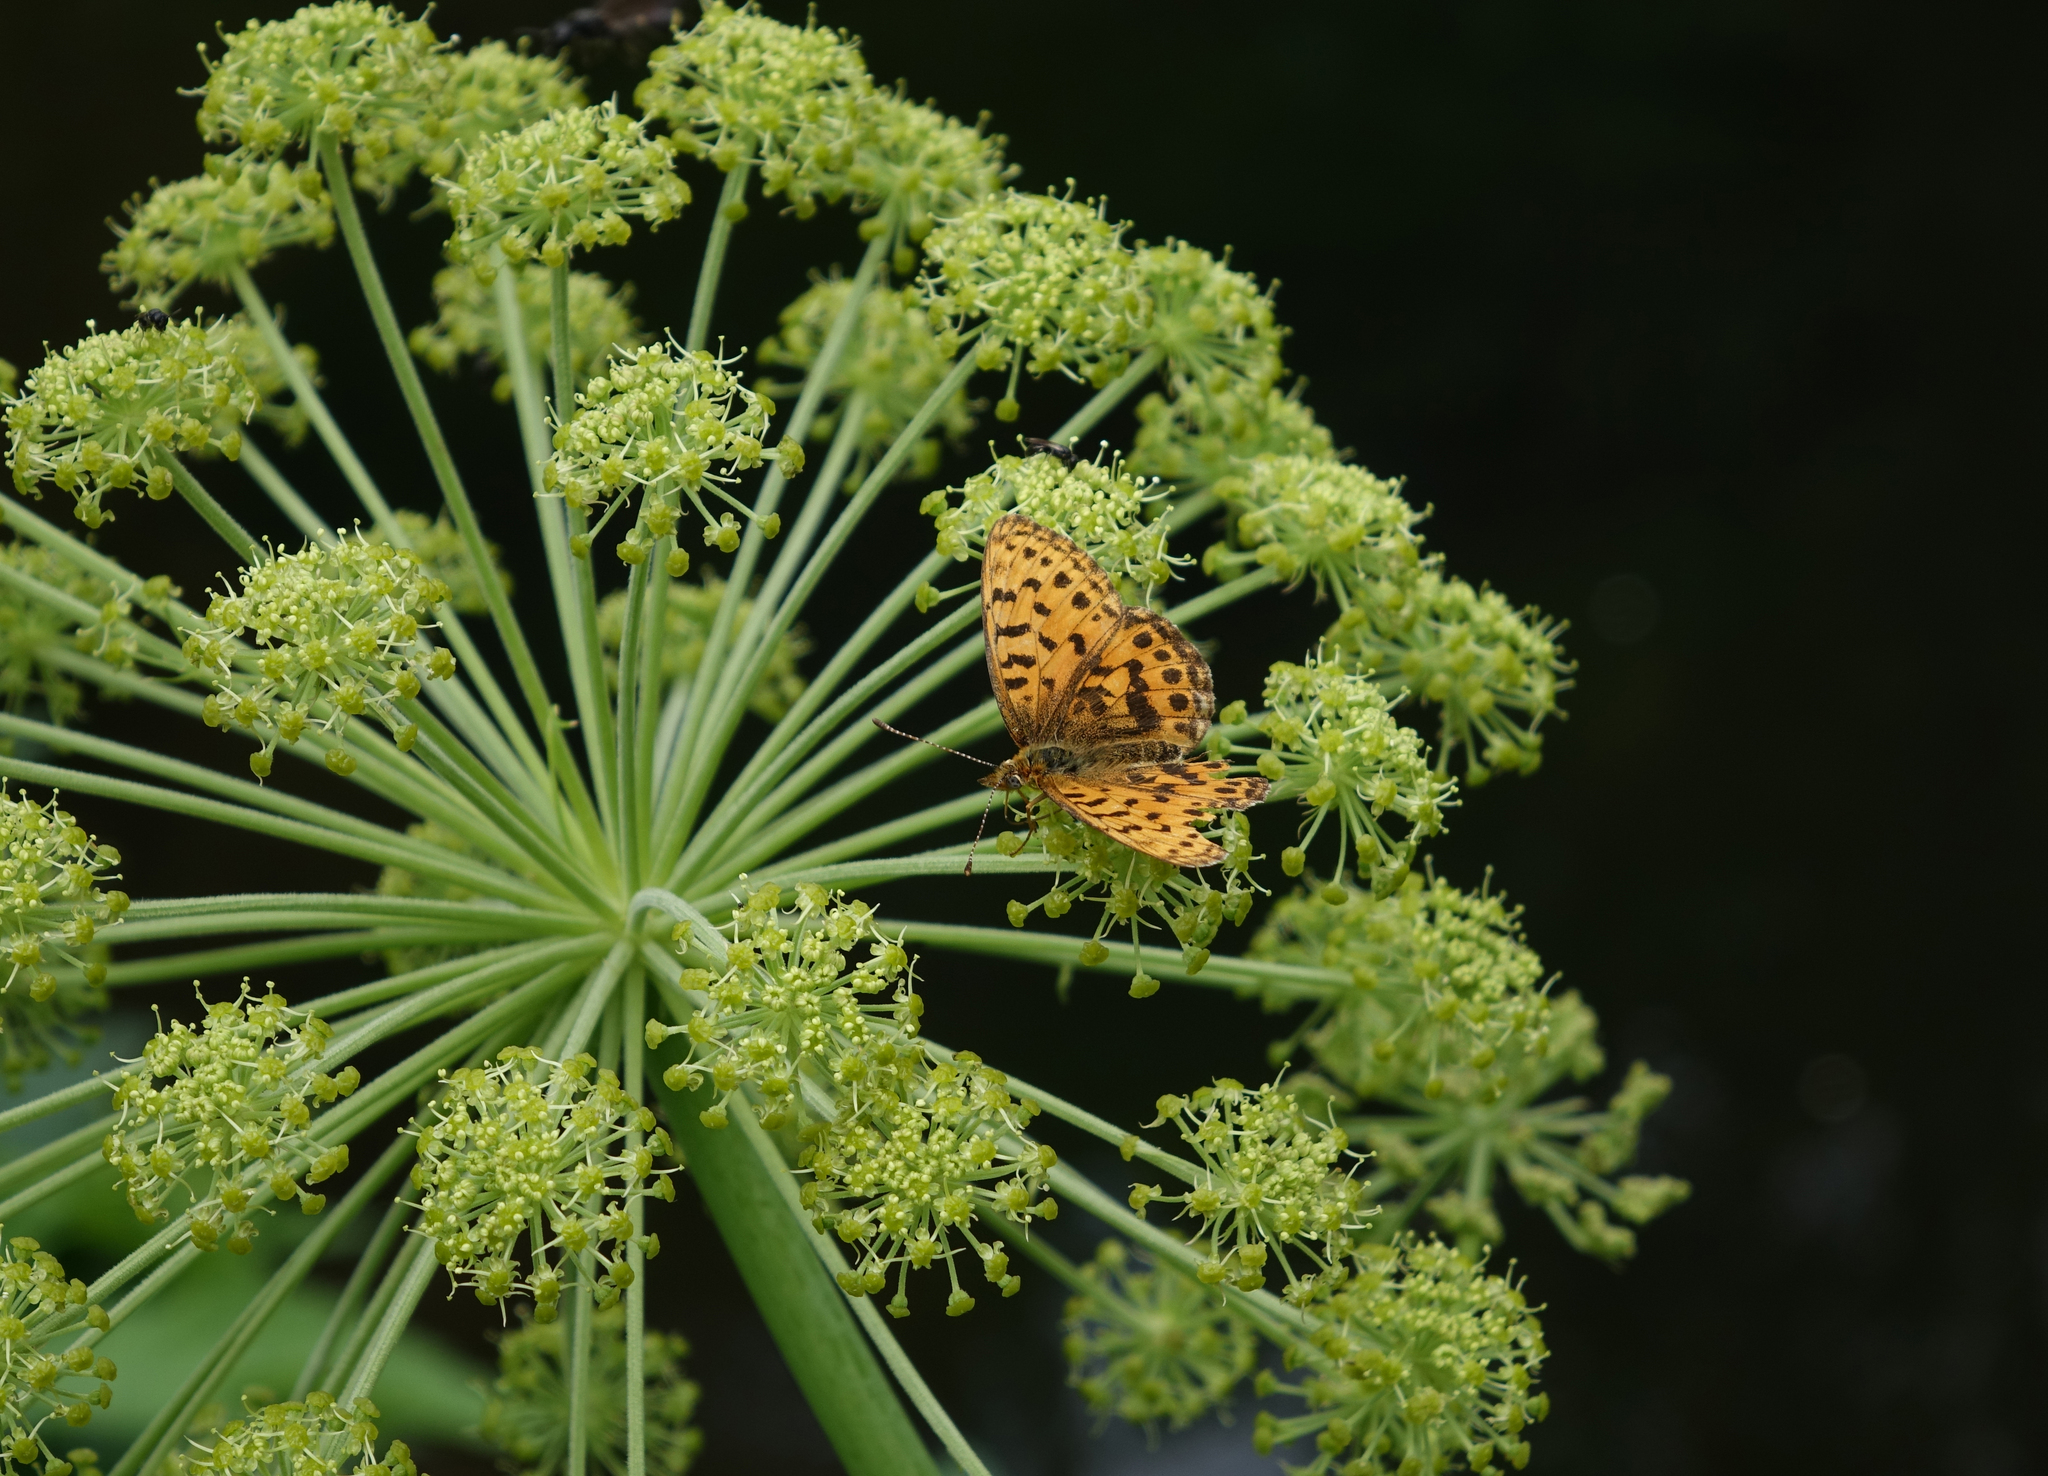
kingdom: Animalia
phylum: Arthropoda
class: Insecta
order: Lepidoptera
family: Nymphalidae
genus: Boloria
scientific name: Boloria thore
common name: Thor's fritillary
